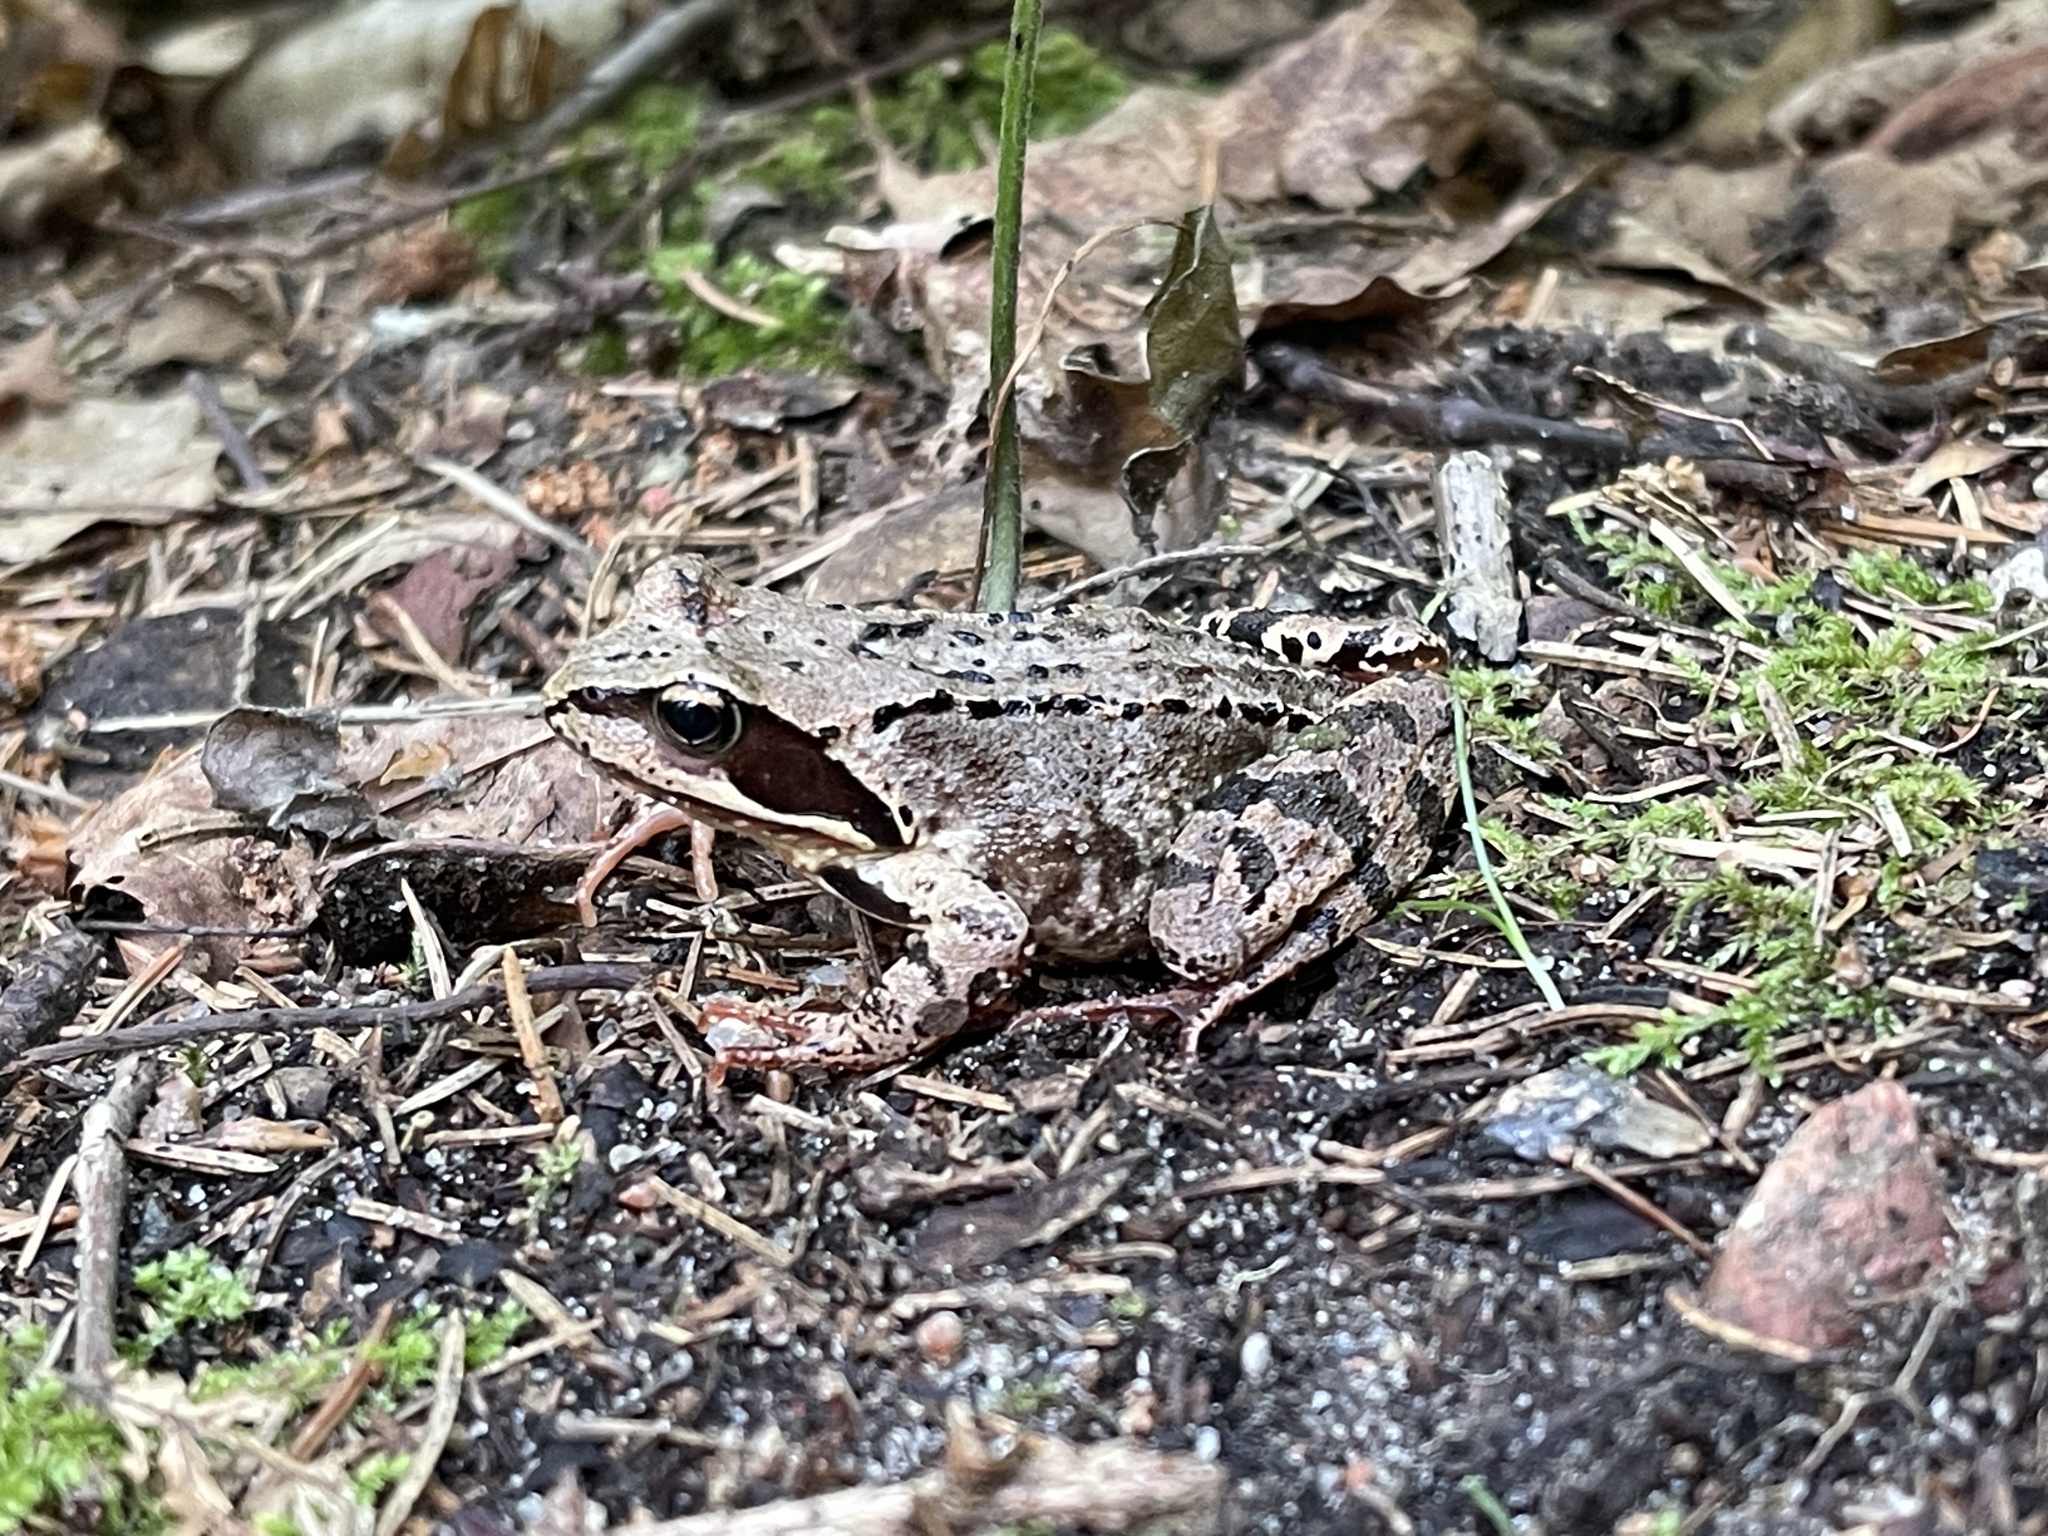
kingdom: Animalia
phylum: Chordata
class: Amphibia
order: Anura
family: Ranidae
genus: Rana
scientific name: Rana temporaria
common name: Common frog
